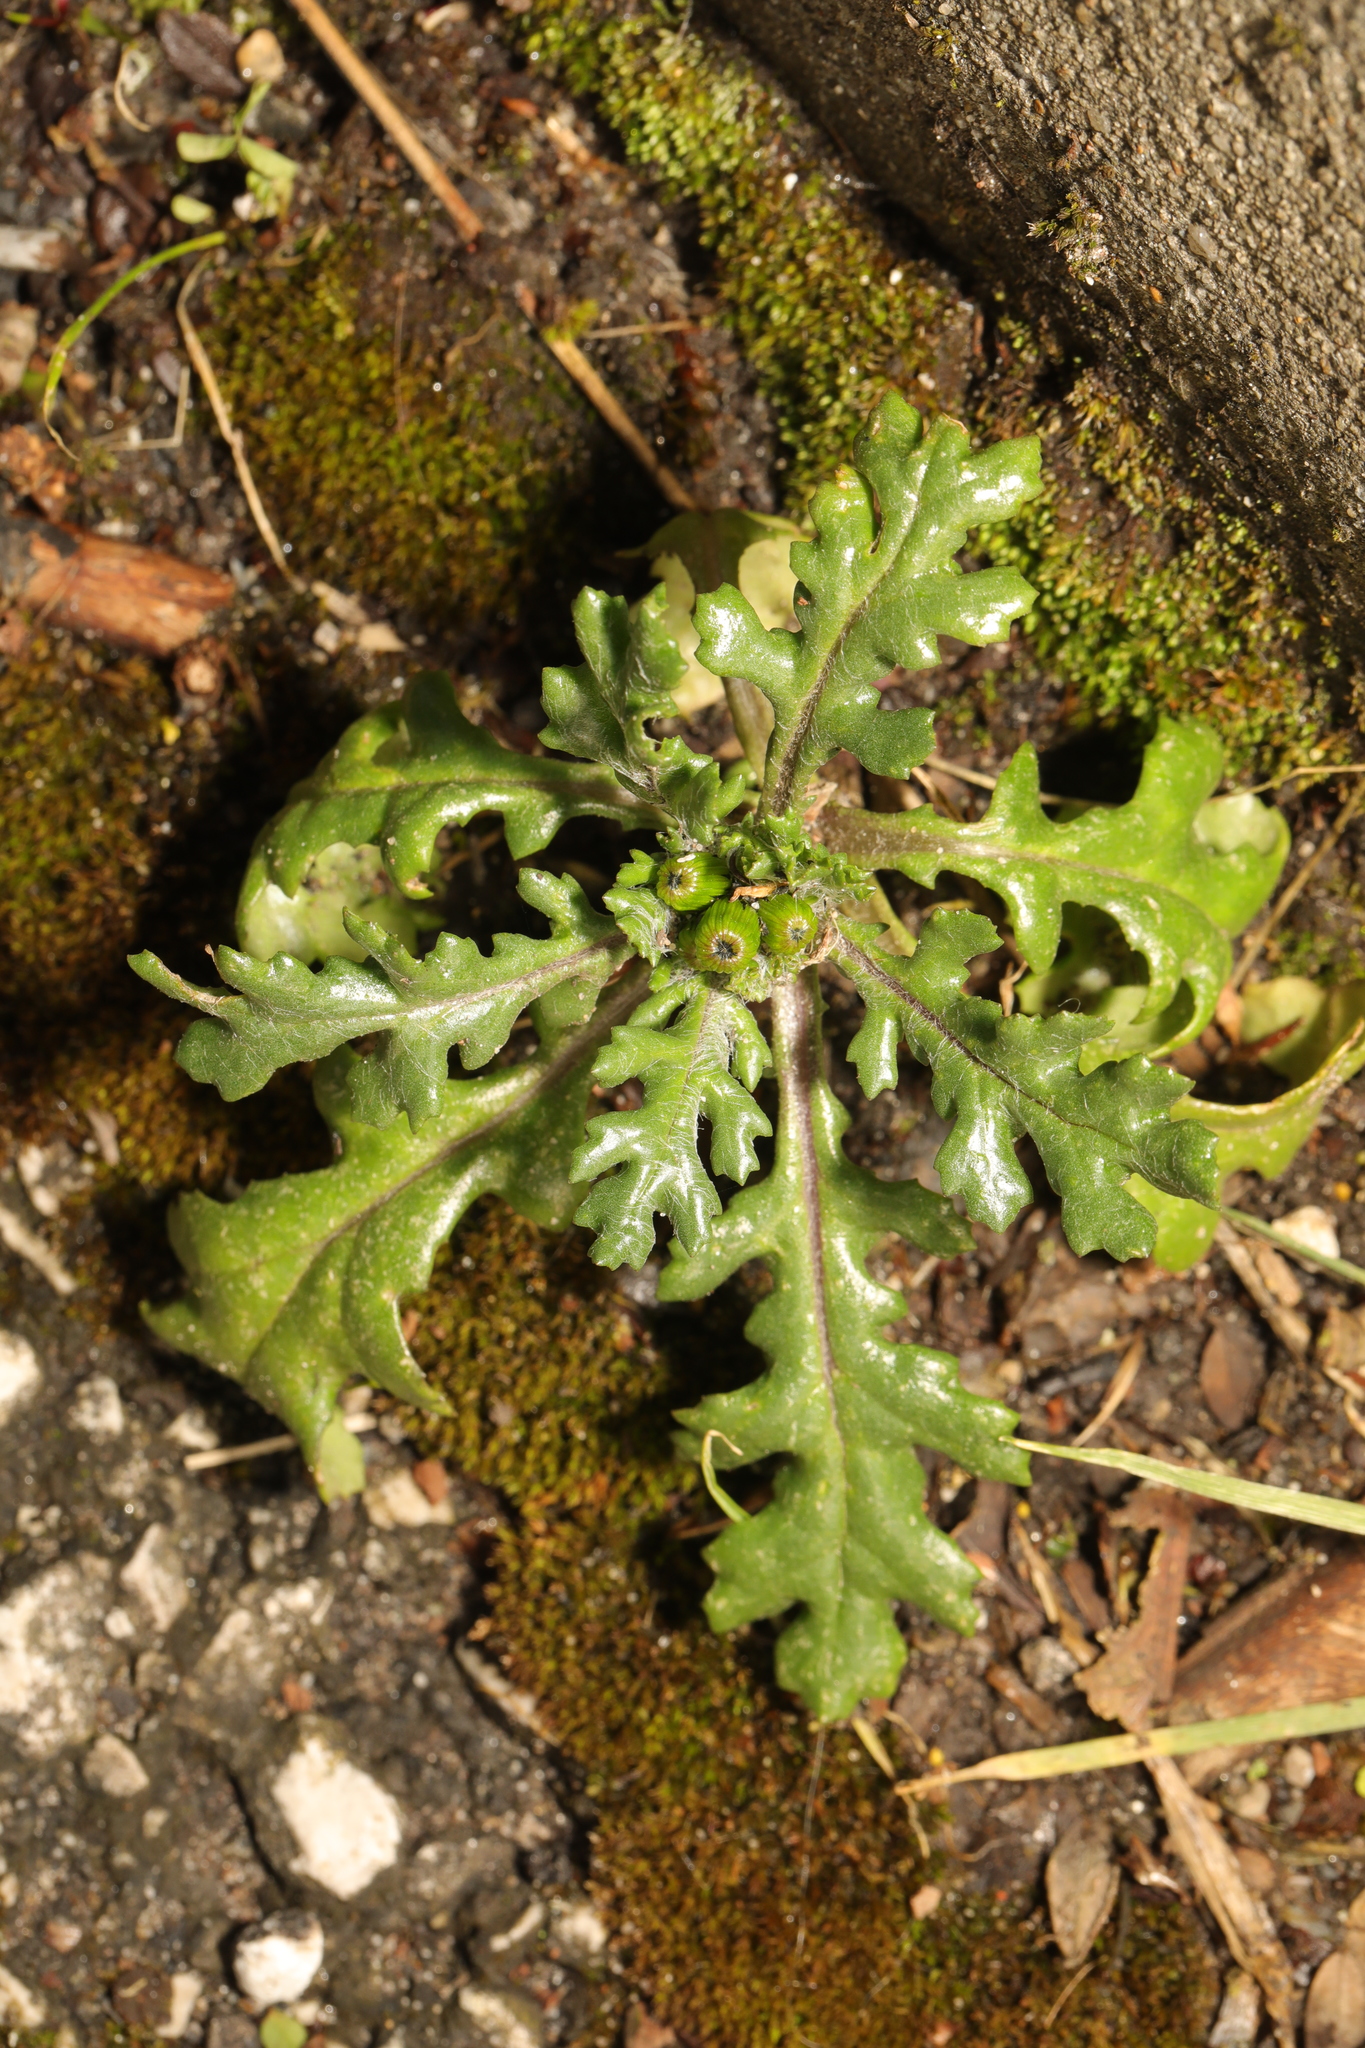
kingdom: Plantae
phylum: Tracheophyta
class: Magnoliopsida
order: Asterales
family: Asteraceae
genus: Senecio
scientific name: Senecio vulgaris
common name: Old-man-in-the-spring
